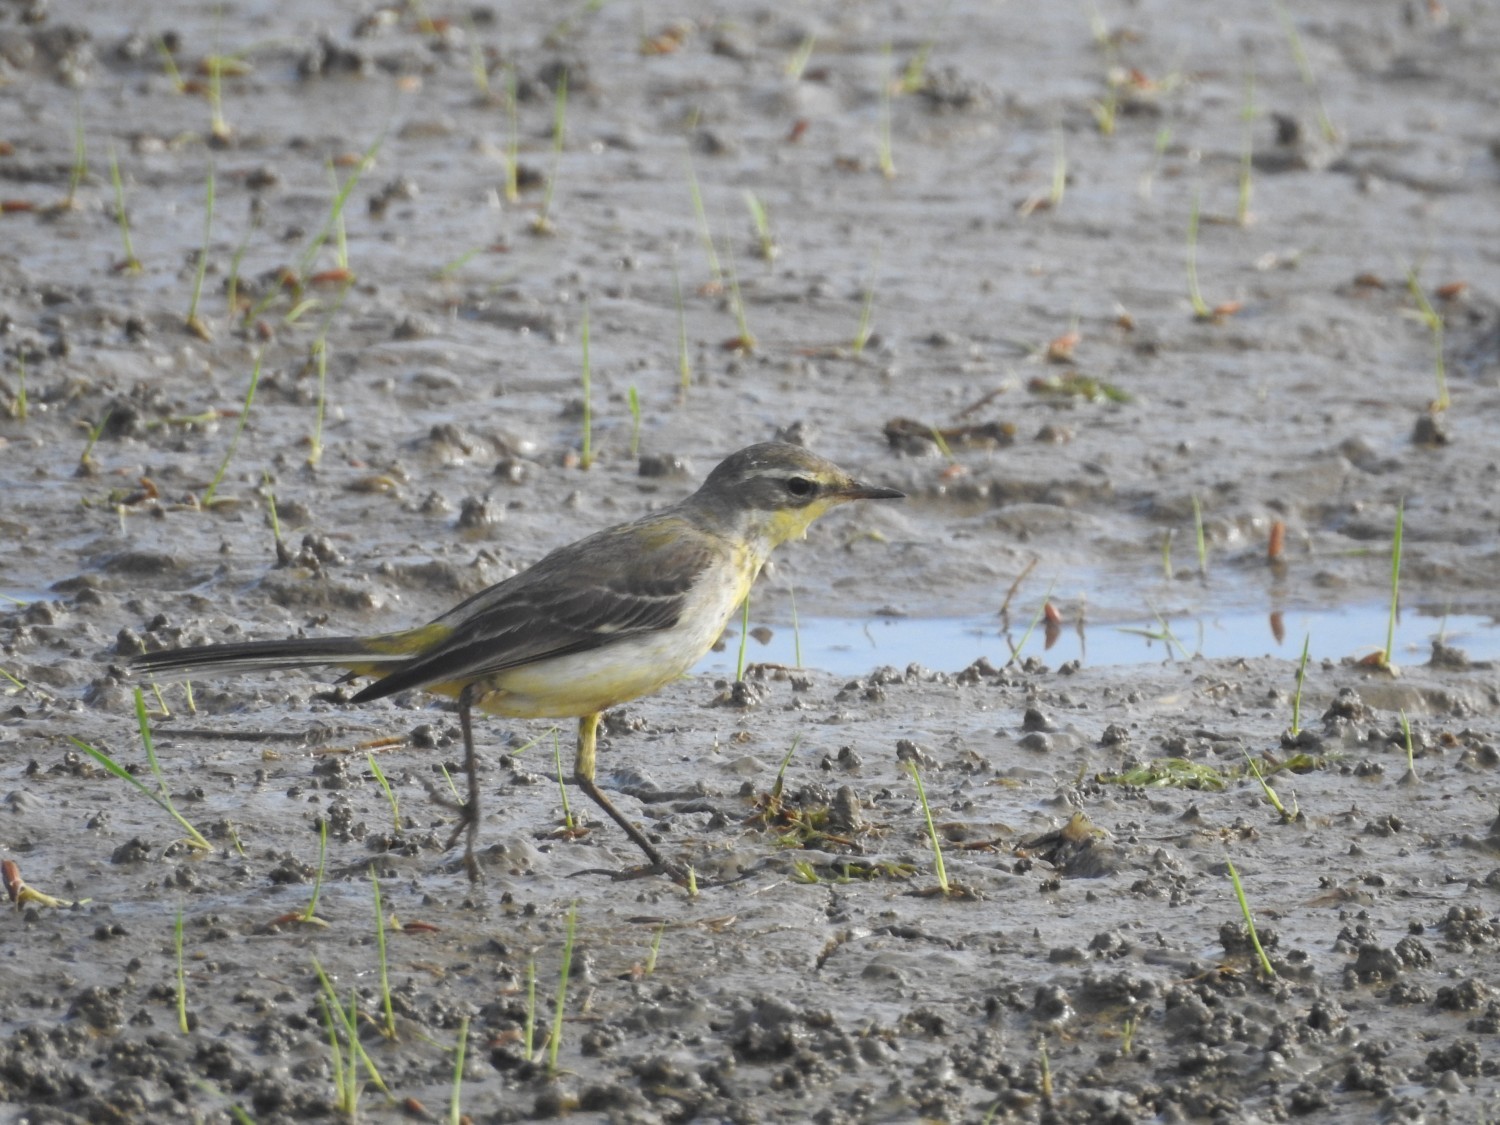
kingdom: Animalia
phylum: Chordata
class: Aves
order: Passeriformes
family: Motacillidae
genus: Motacilla
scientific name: Motacilla flava
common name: Western yellow wagtail
